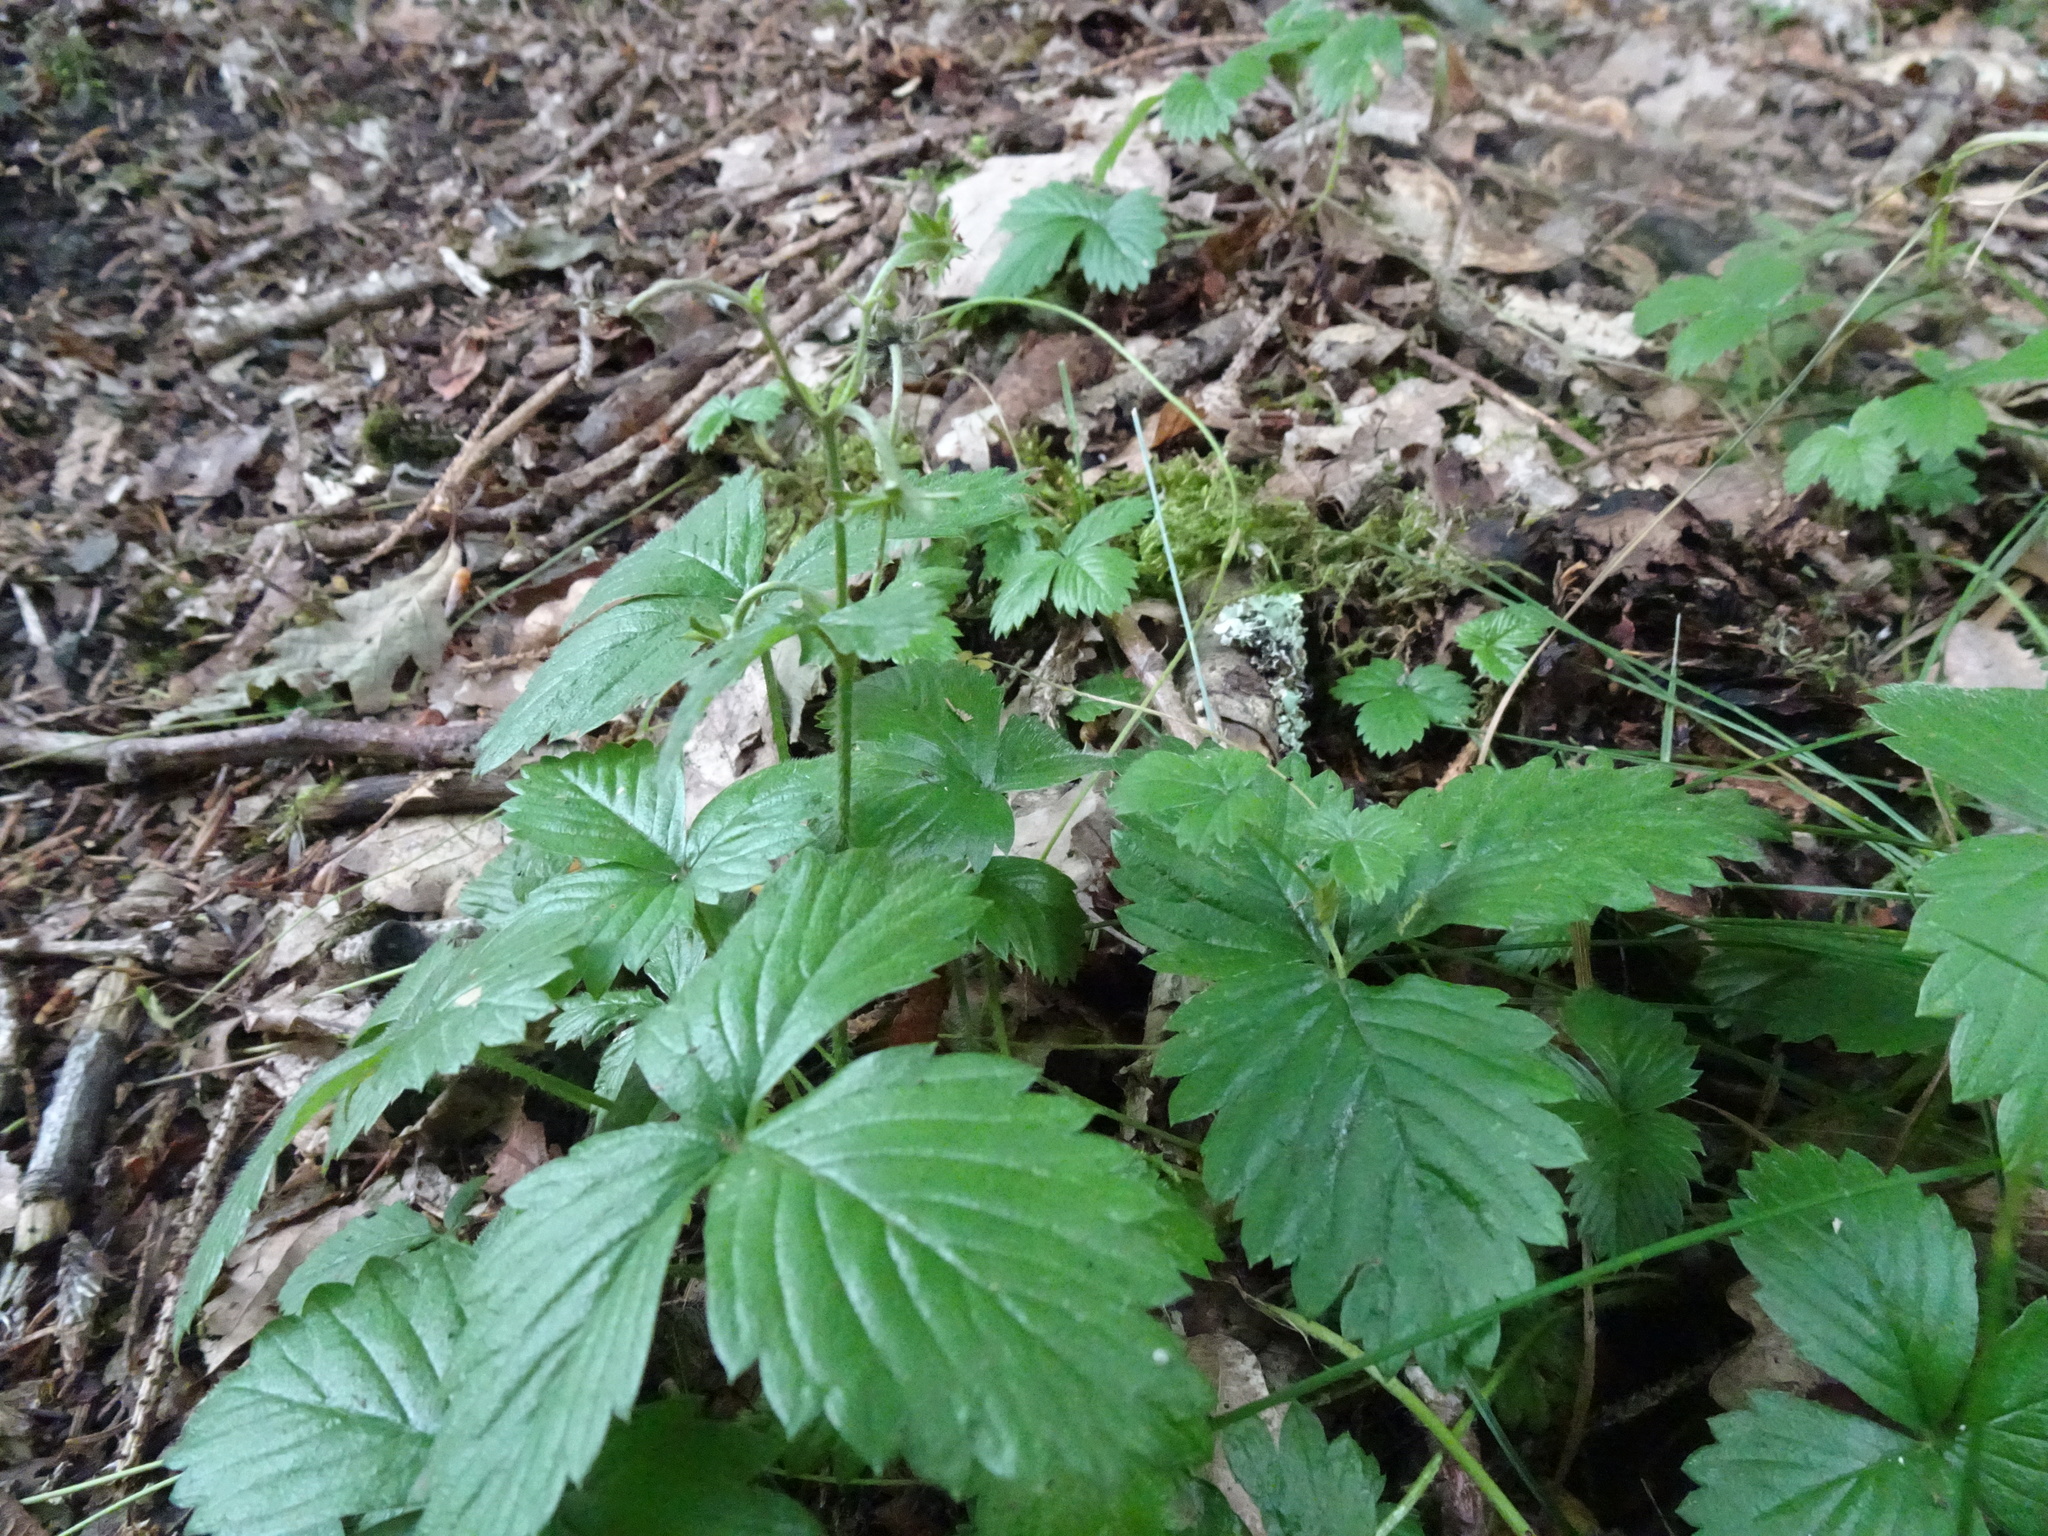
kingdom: Plantae
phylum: Tracheophyta
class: Magnoliopsida
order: Rosales
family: Rosaceae
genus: Fragaria
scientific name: Fragaria vesca
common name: Wild strawberry
